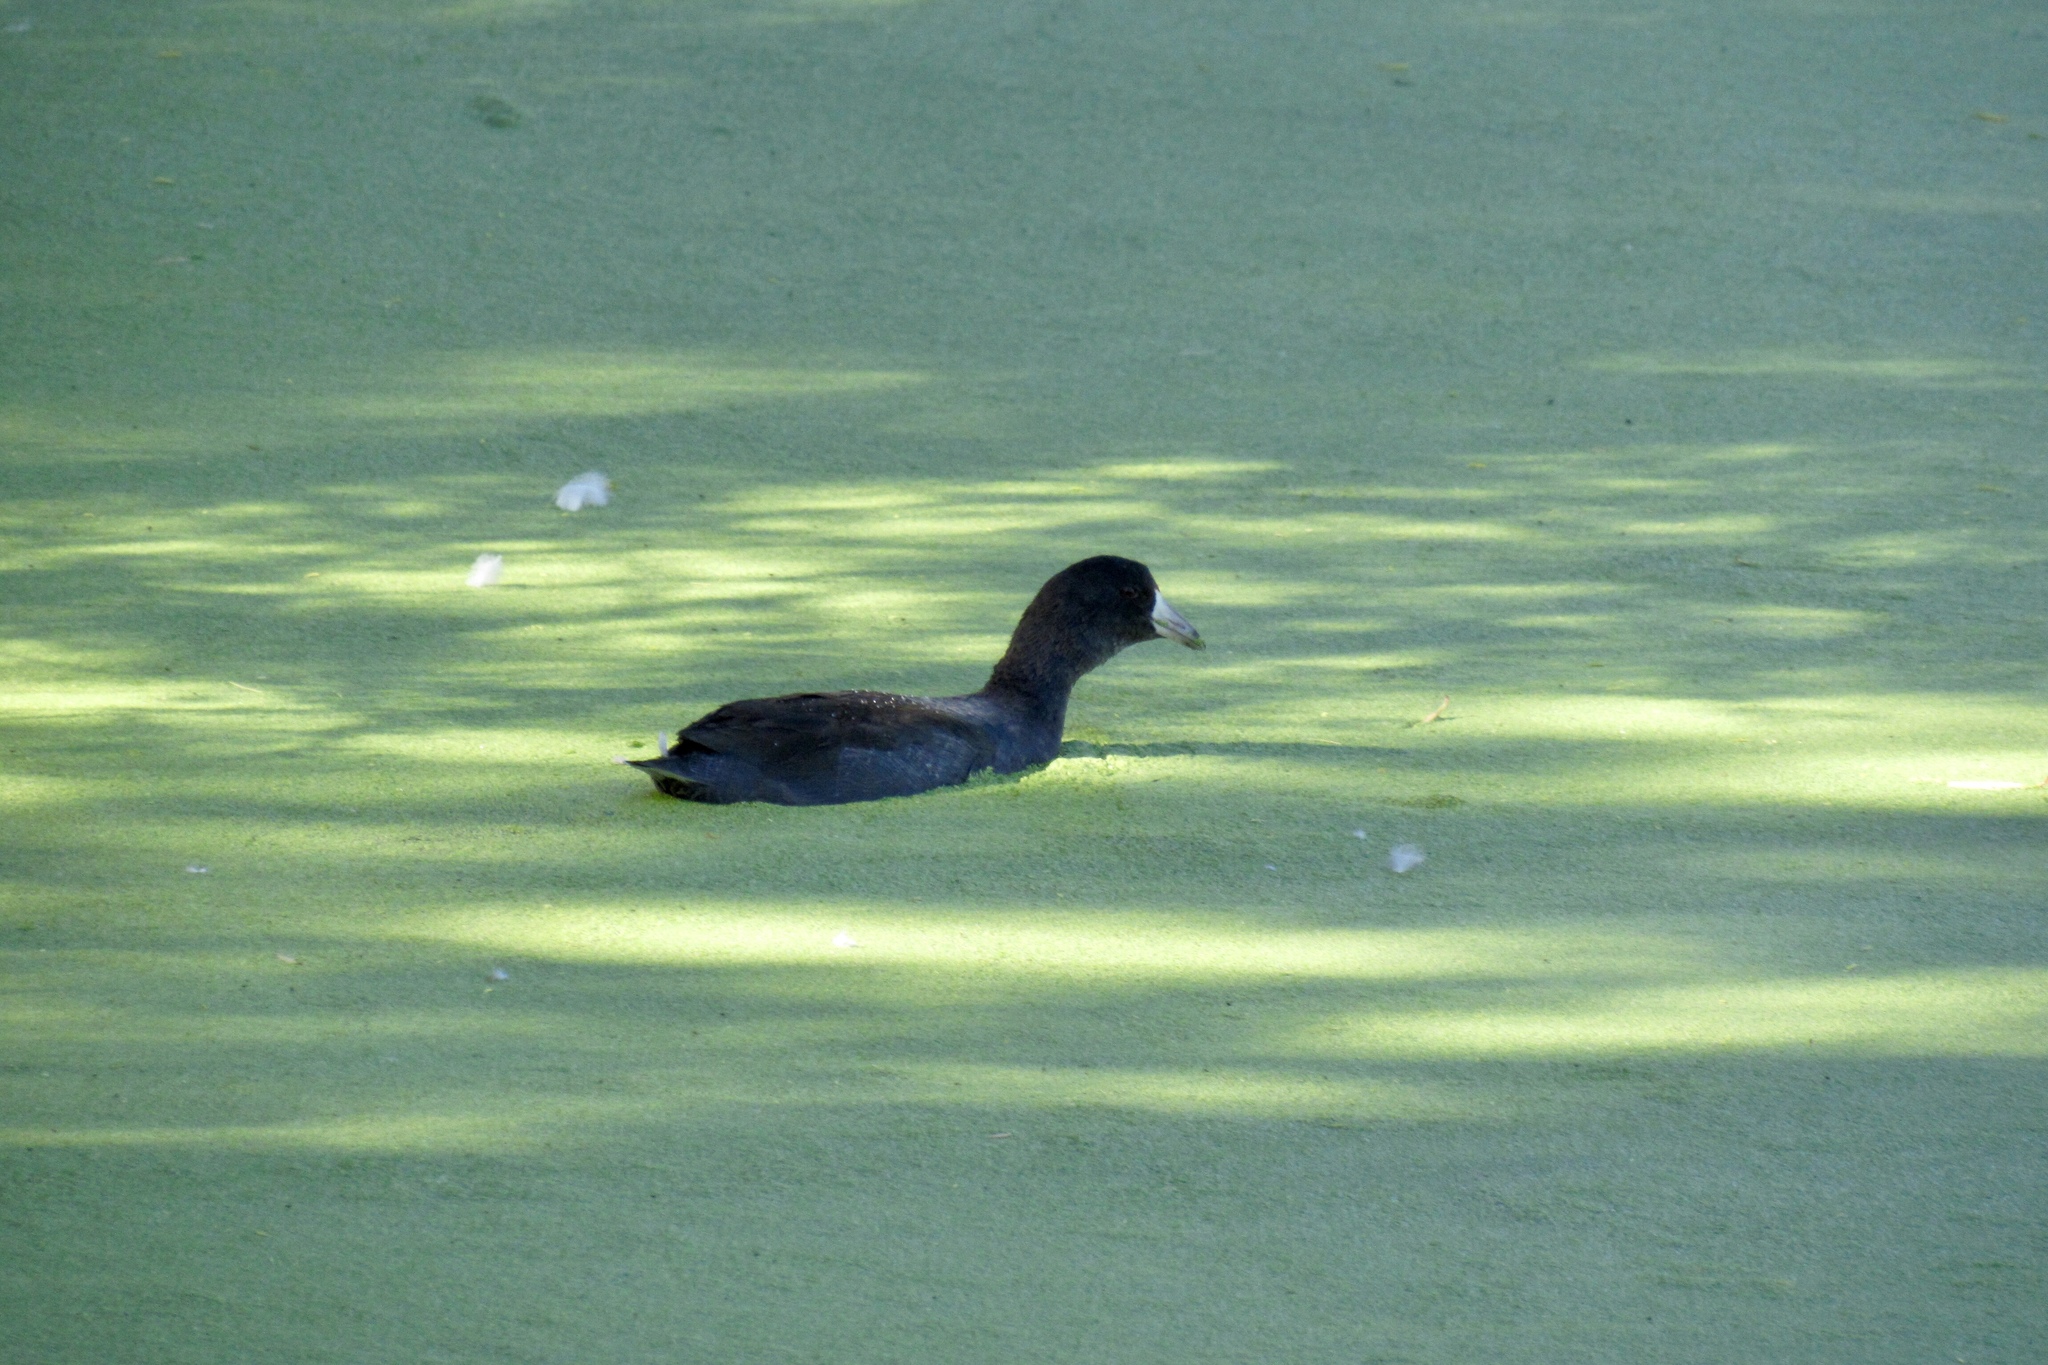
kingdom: Animalia
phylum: Chordata
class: Aves
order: Gruiformes
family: Rallidae
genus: Fulica
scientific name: Fulica americana
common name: American coot
